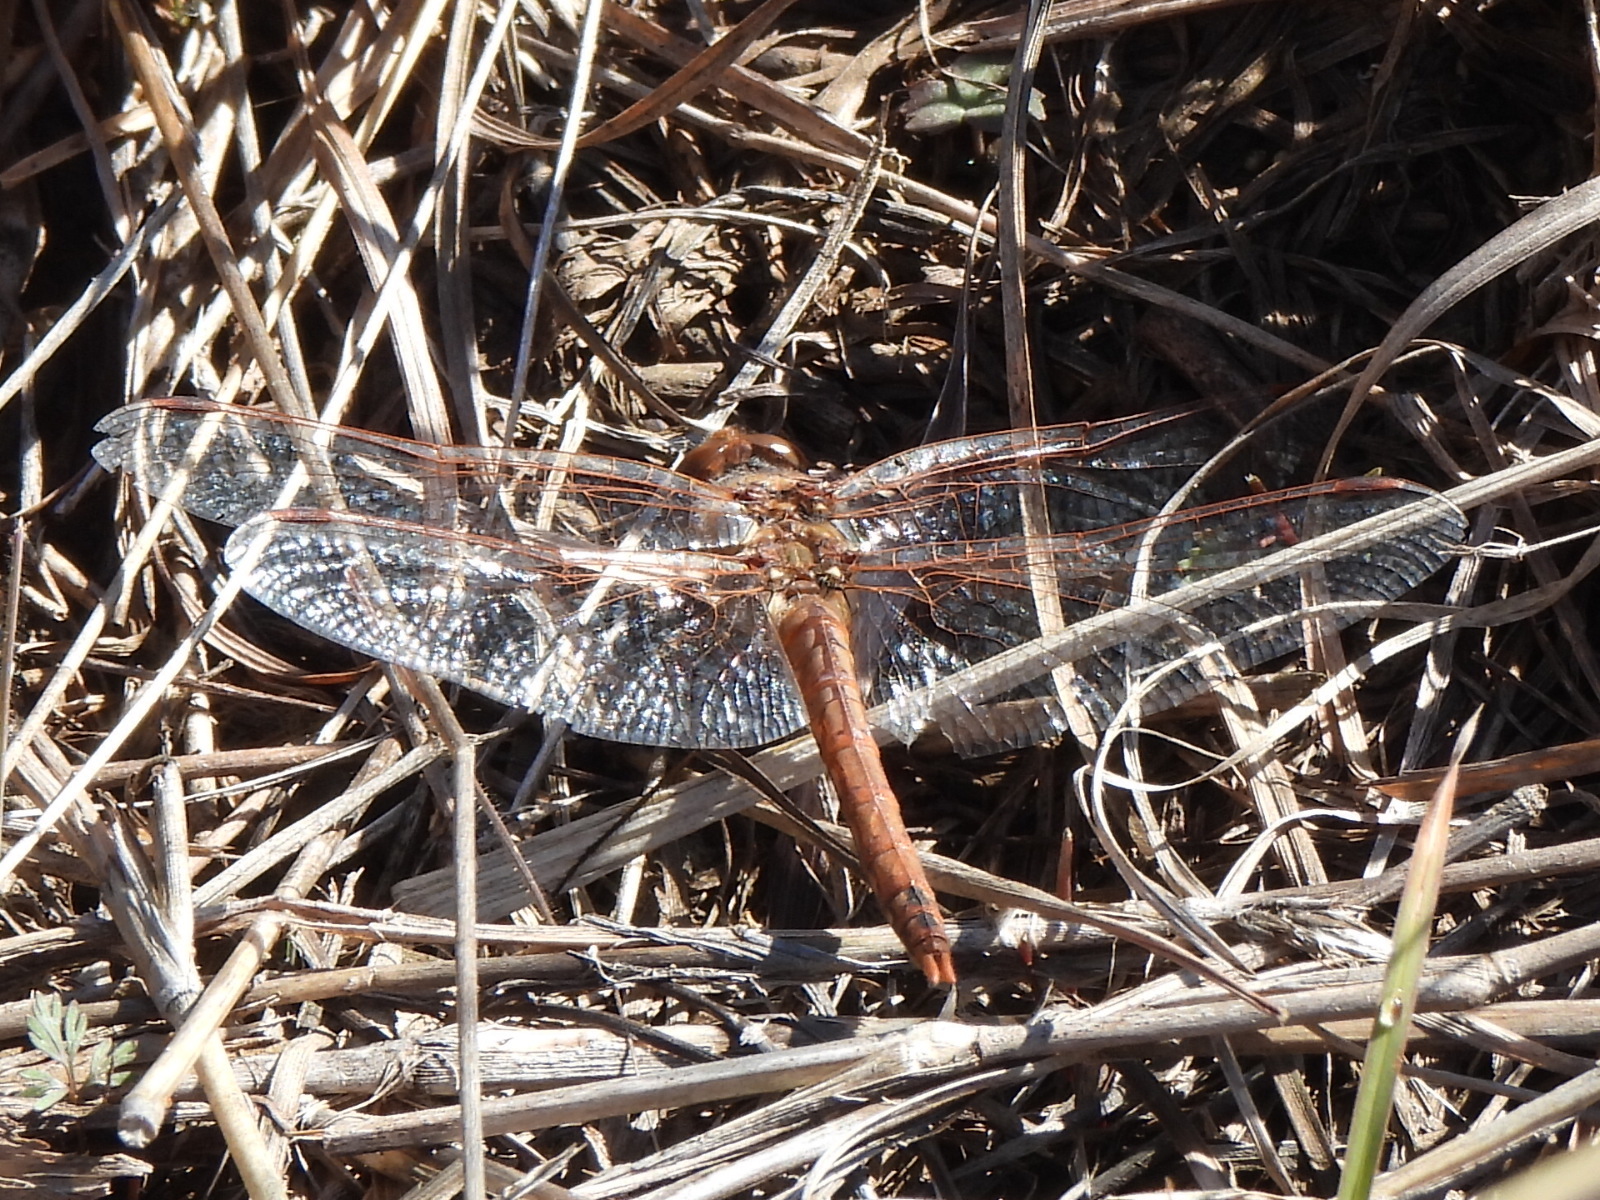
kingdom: Animalia
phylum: Arthropoda
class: Insecta
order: Odonata
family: Libellulidae
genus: Sympetrum
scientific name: Sympetrum corruptum
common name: Variegated meadowhawk
